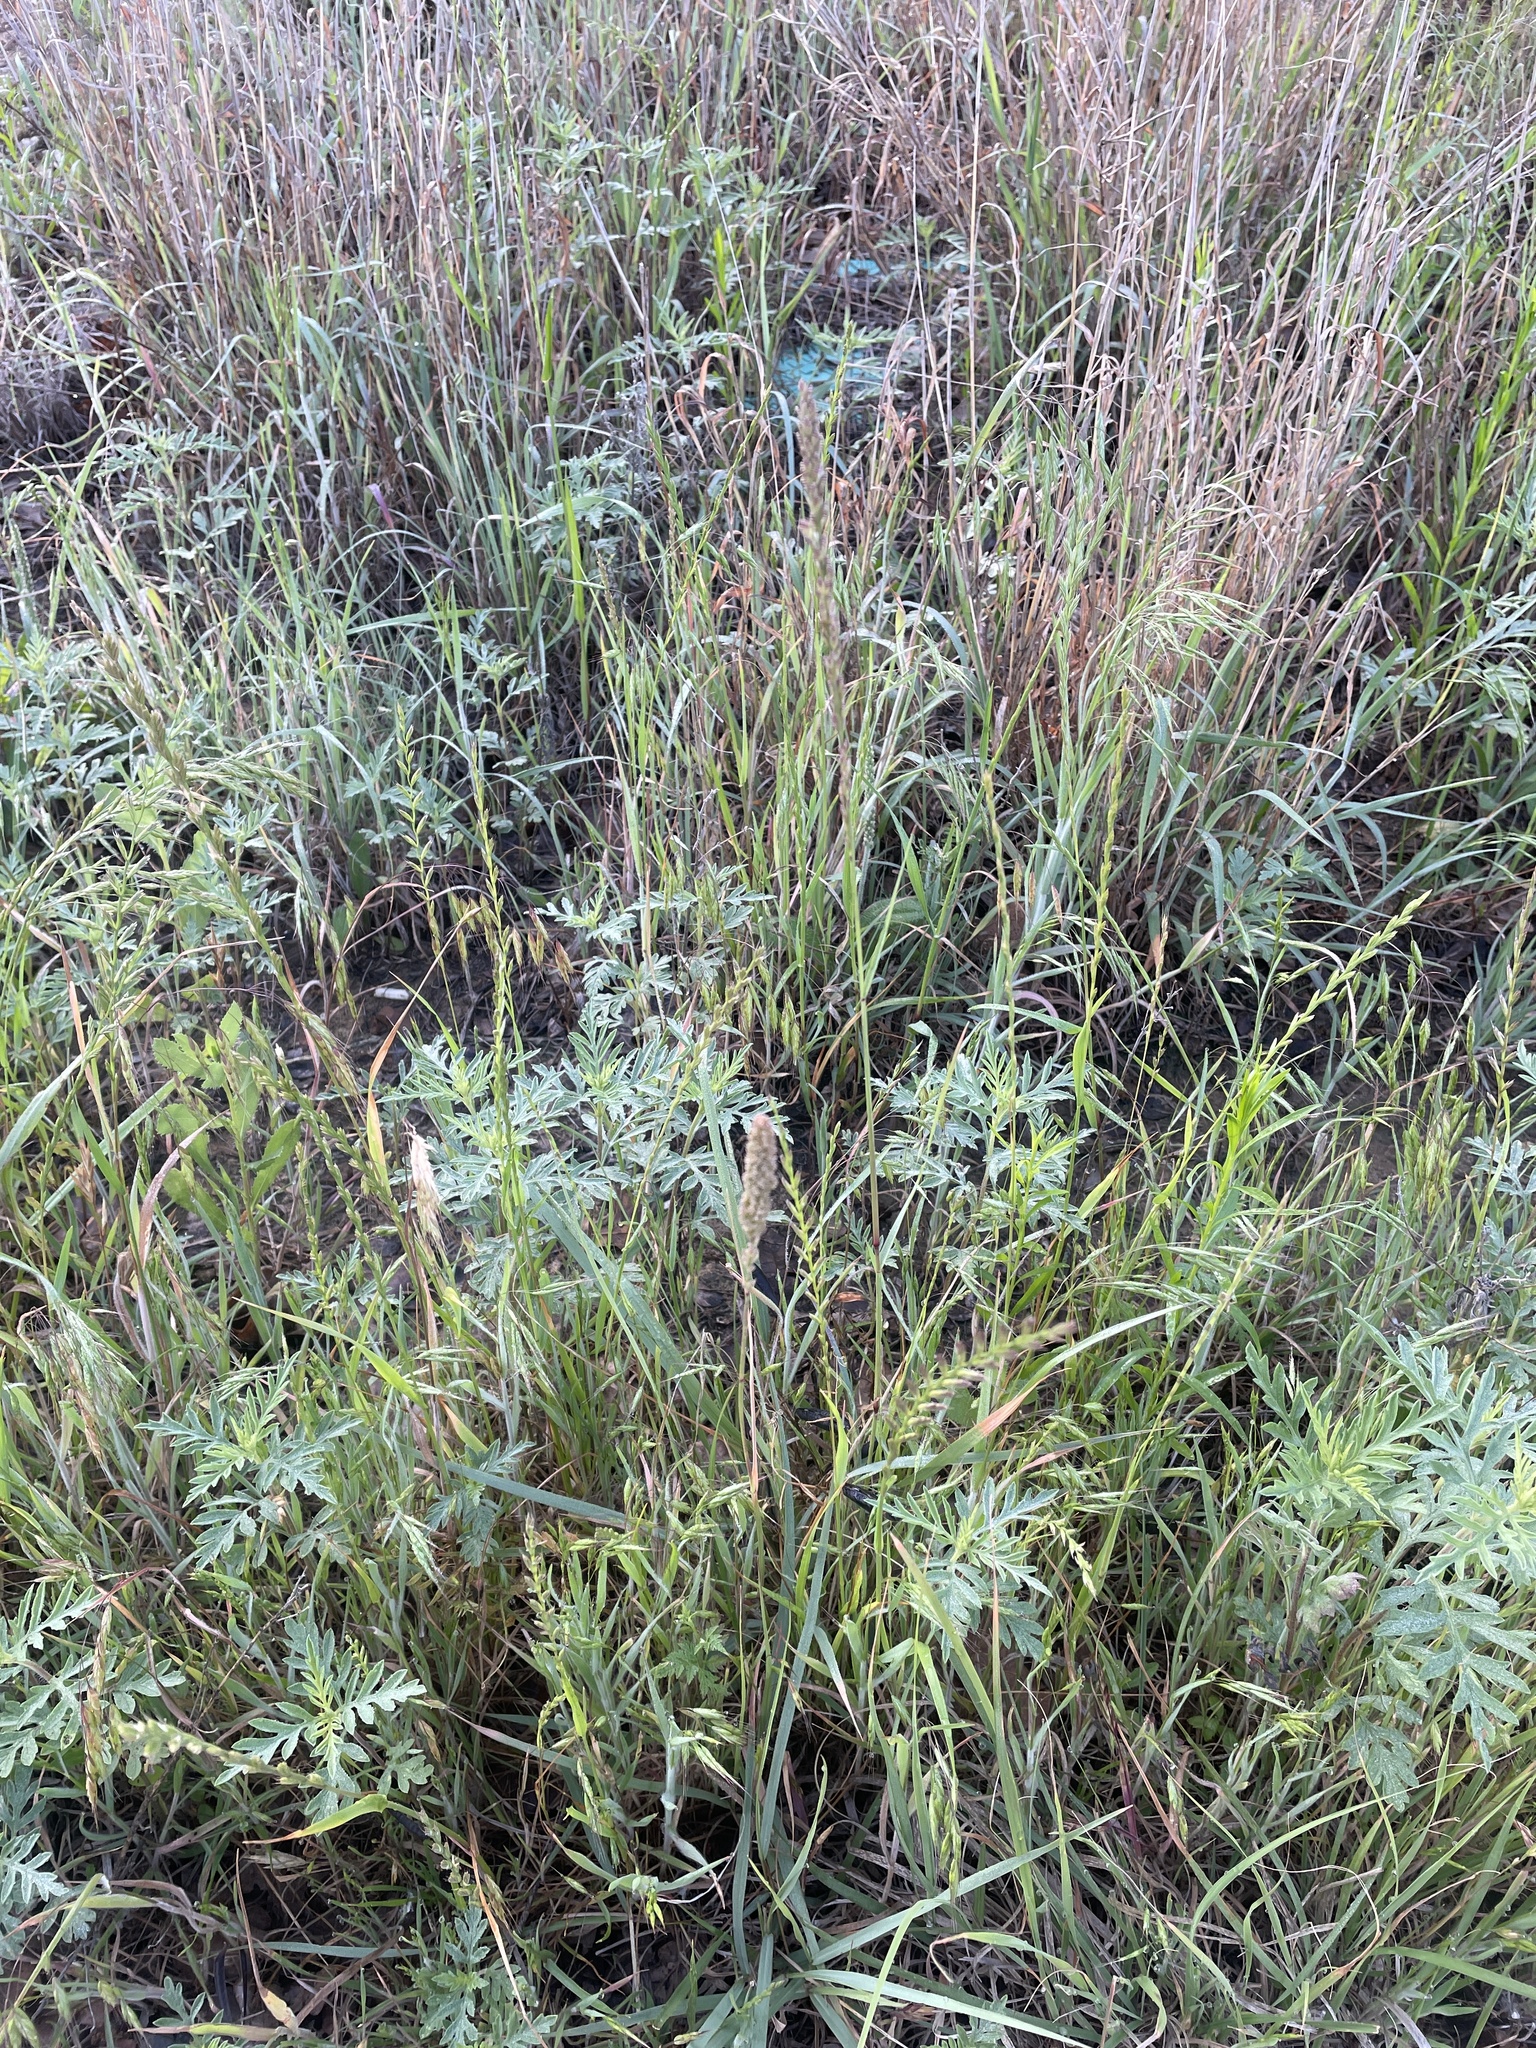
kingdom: Plantae
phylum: Tracheophyta
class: Liliopsida
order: Poales
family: Poaceae
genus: Tridens
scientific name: Tridens albescens
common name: White tridens
